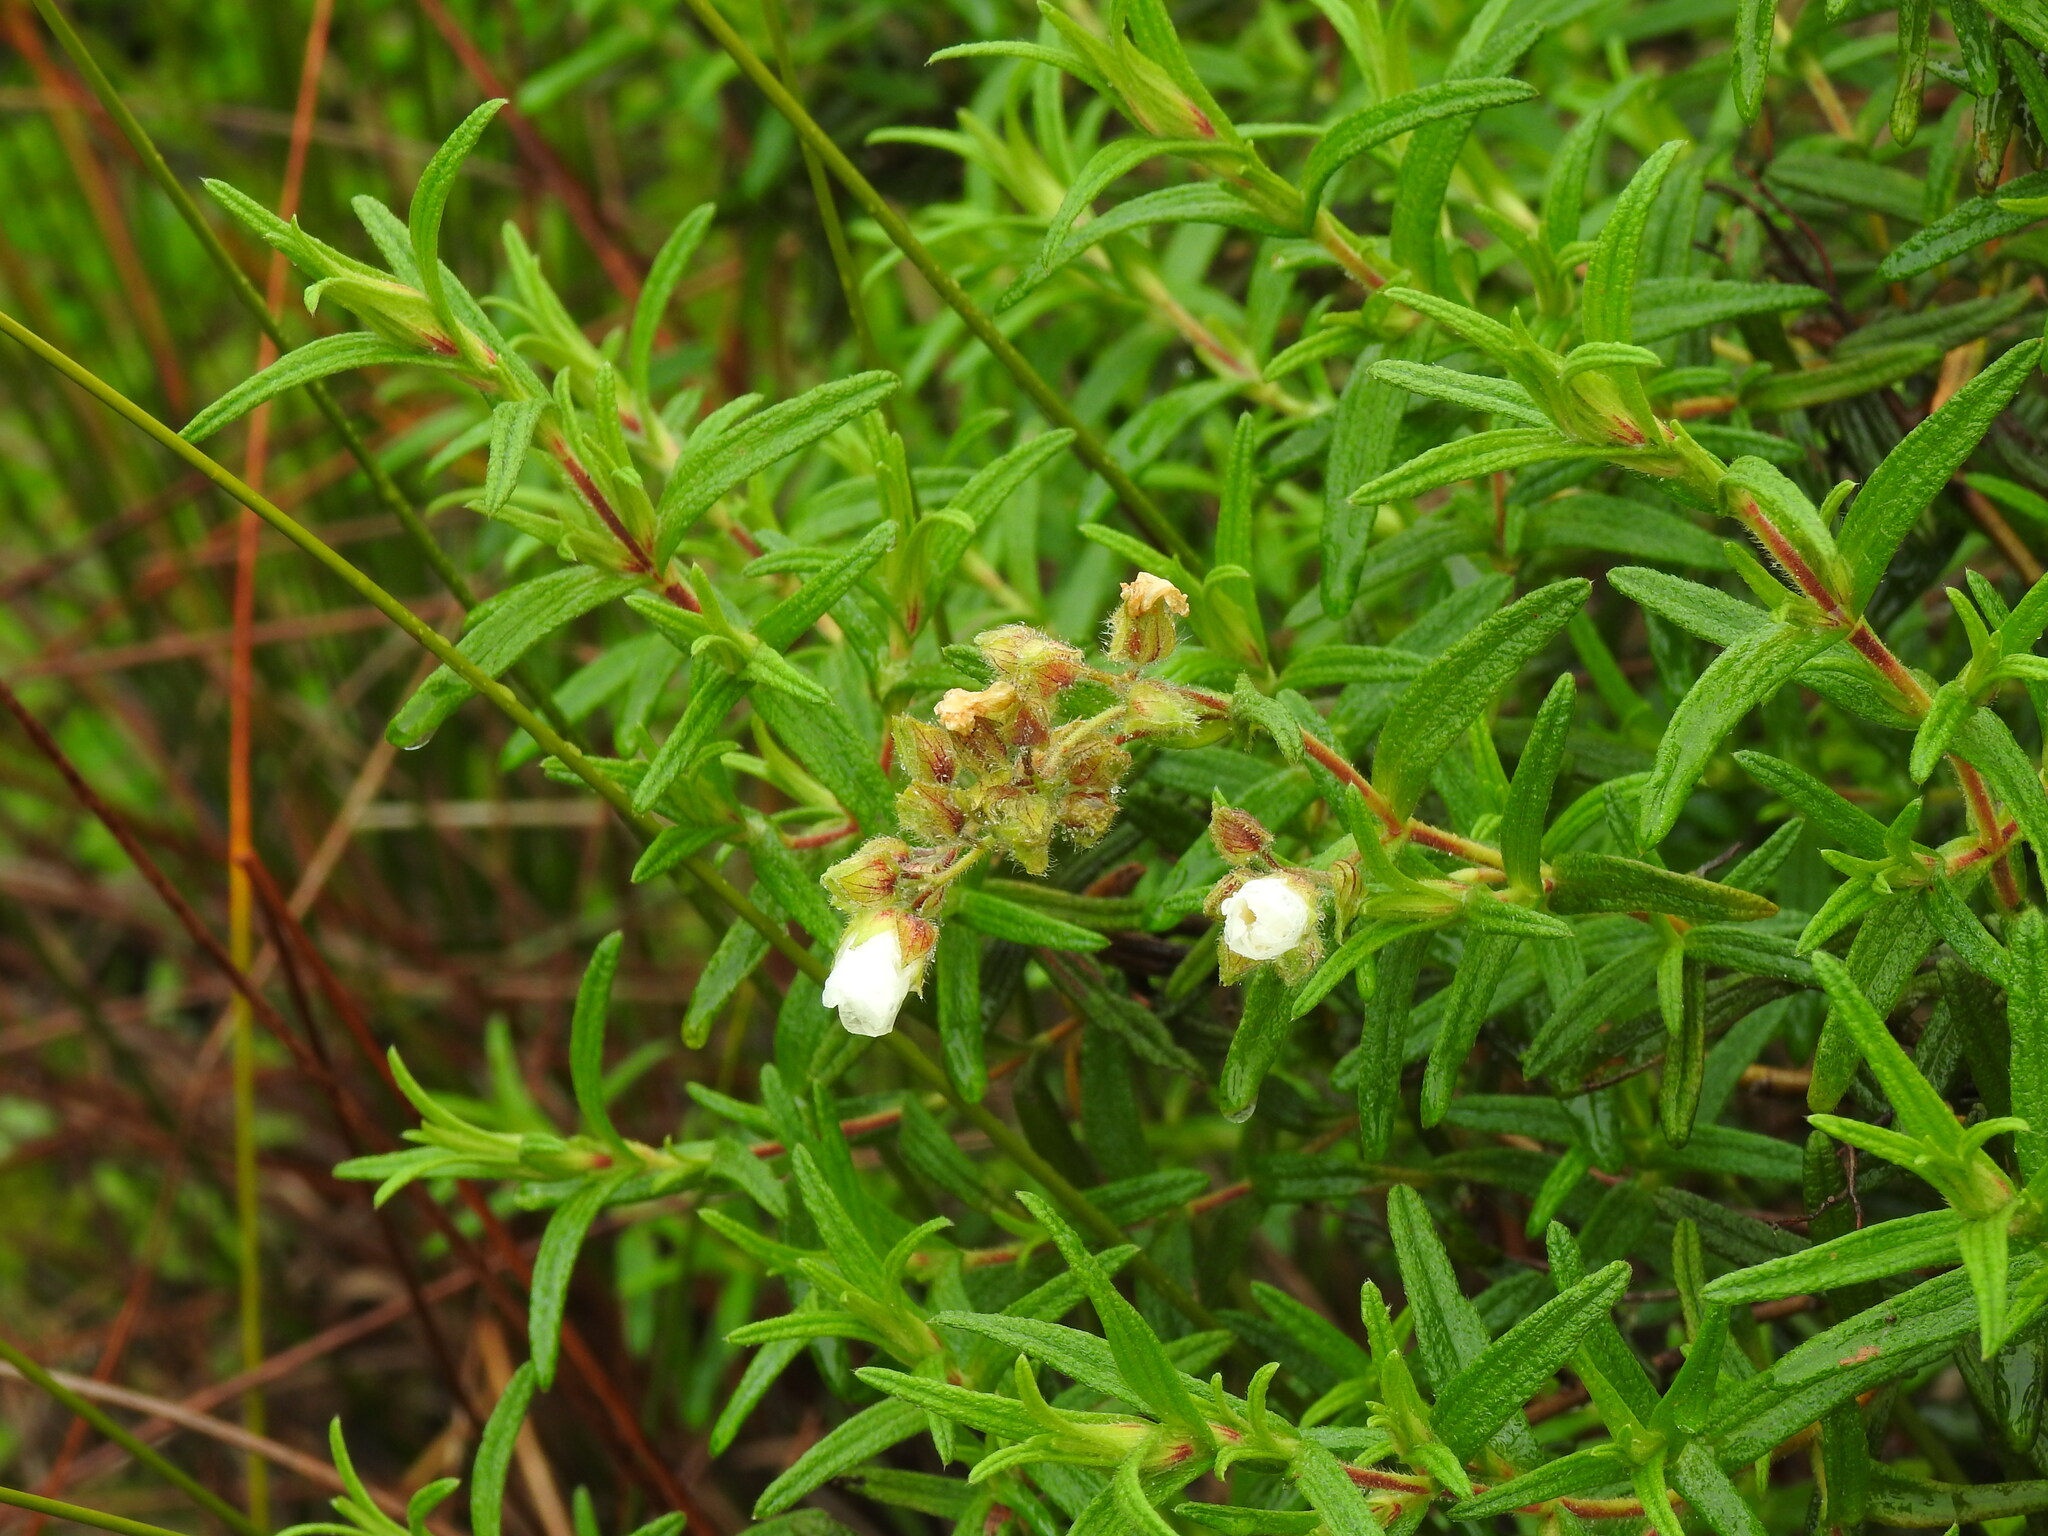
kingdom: Plantae
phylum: Tracheophyta
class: Magnoliopsida
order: Malvales
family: Cistaceae
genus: Cistus
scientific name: Cistus monspeliensis
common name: Montpelier cistus
